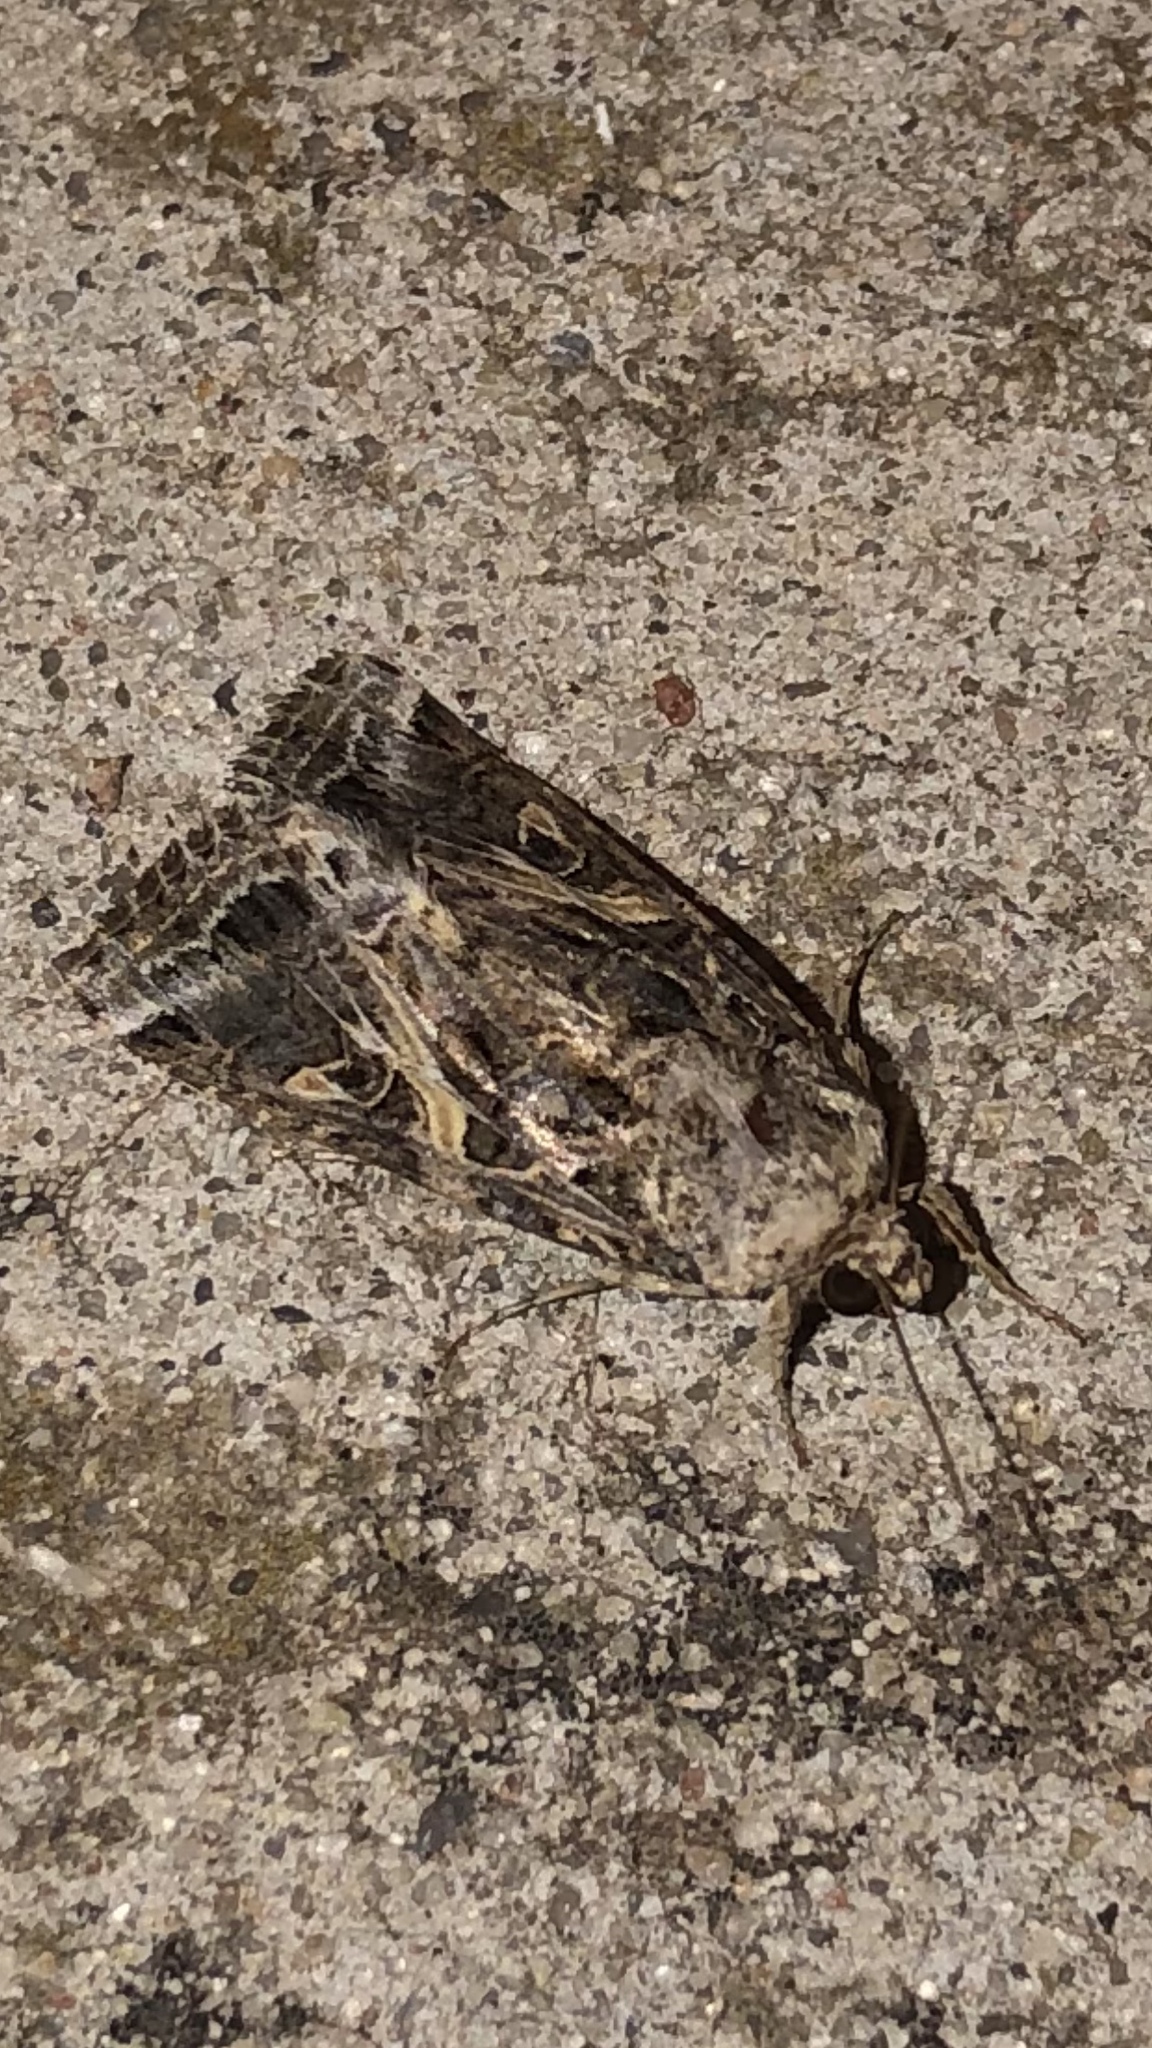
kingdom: Animalia
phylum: Arthropoda
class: Insecta
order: Lepidoptera
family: Noctuidae
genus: Spodoptera
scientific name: Spodoptera ornithogalli
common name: Yellow-striped armyworm
